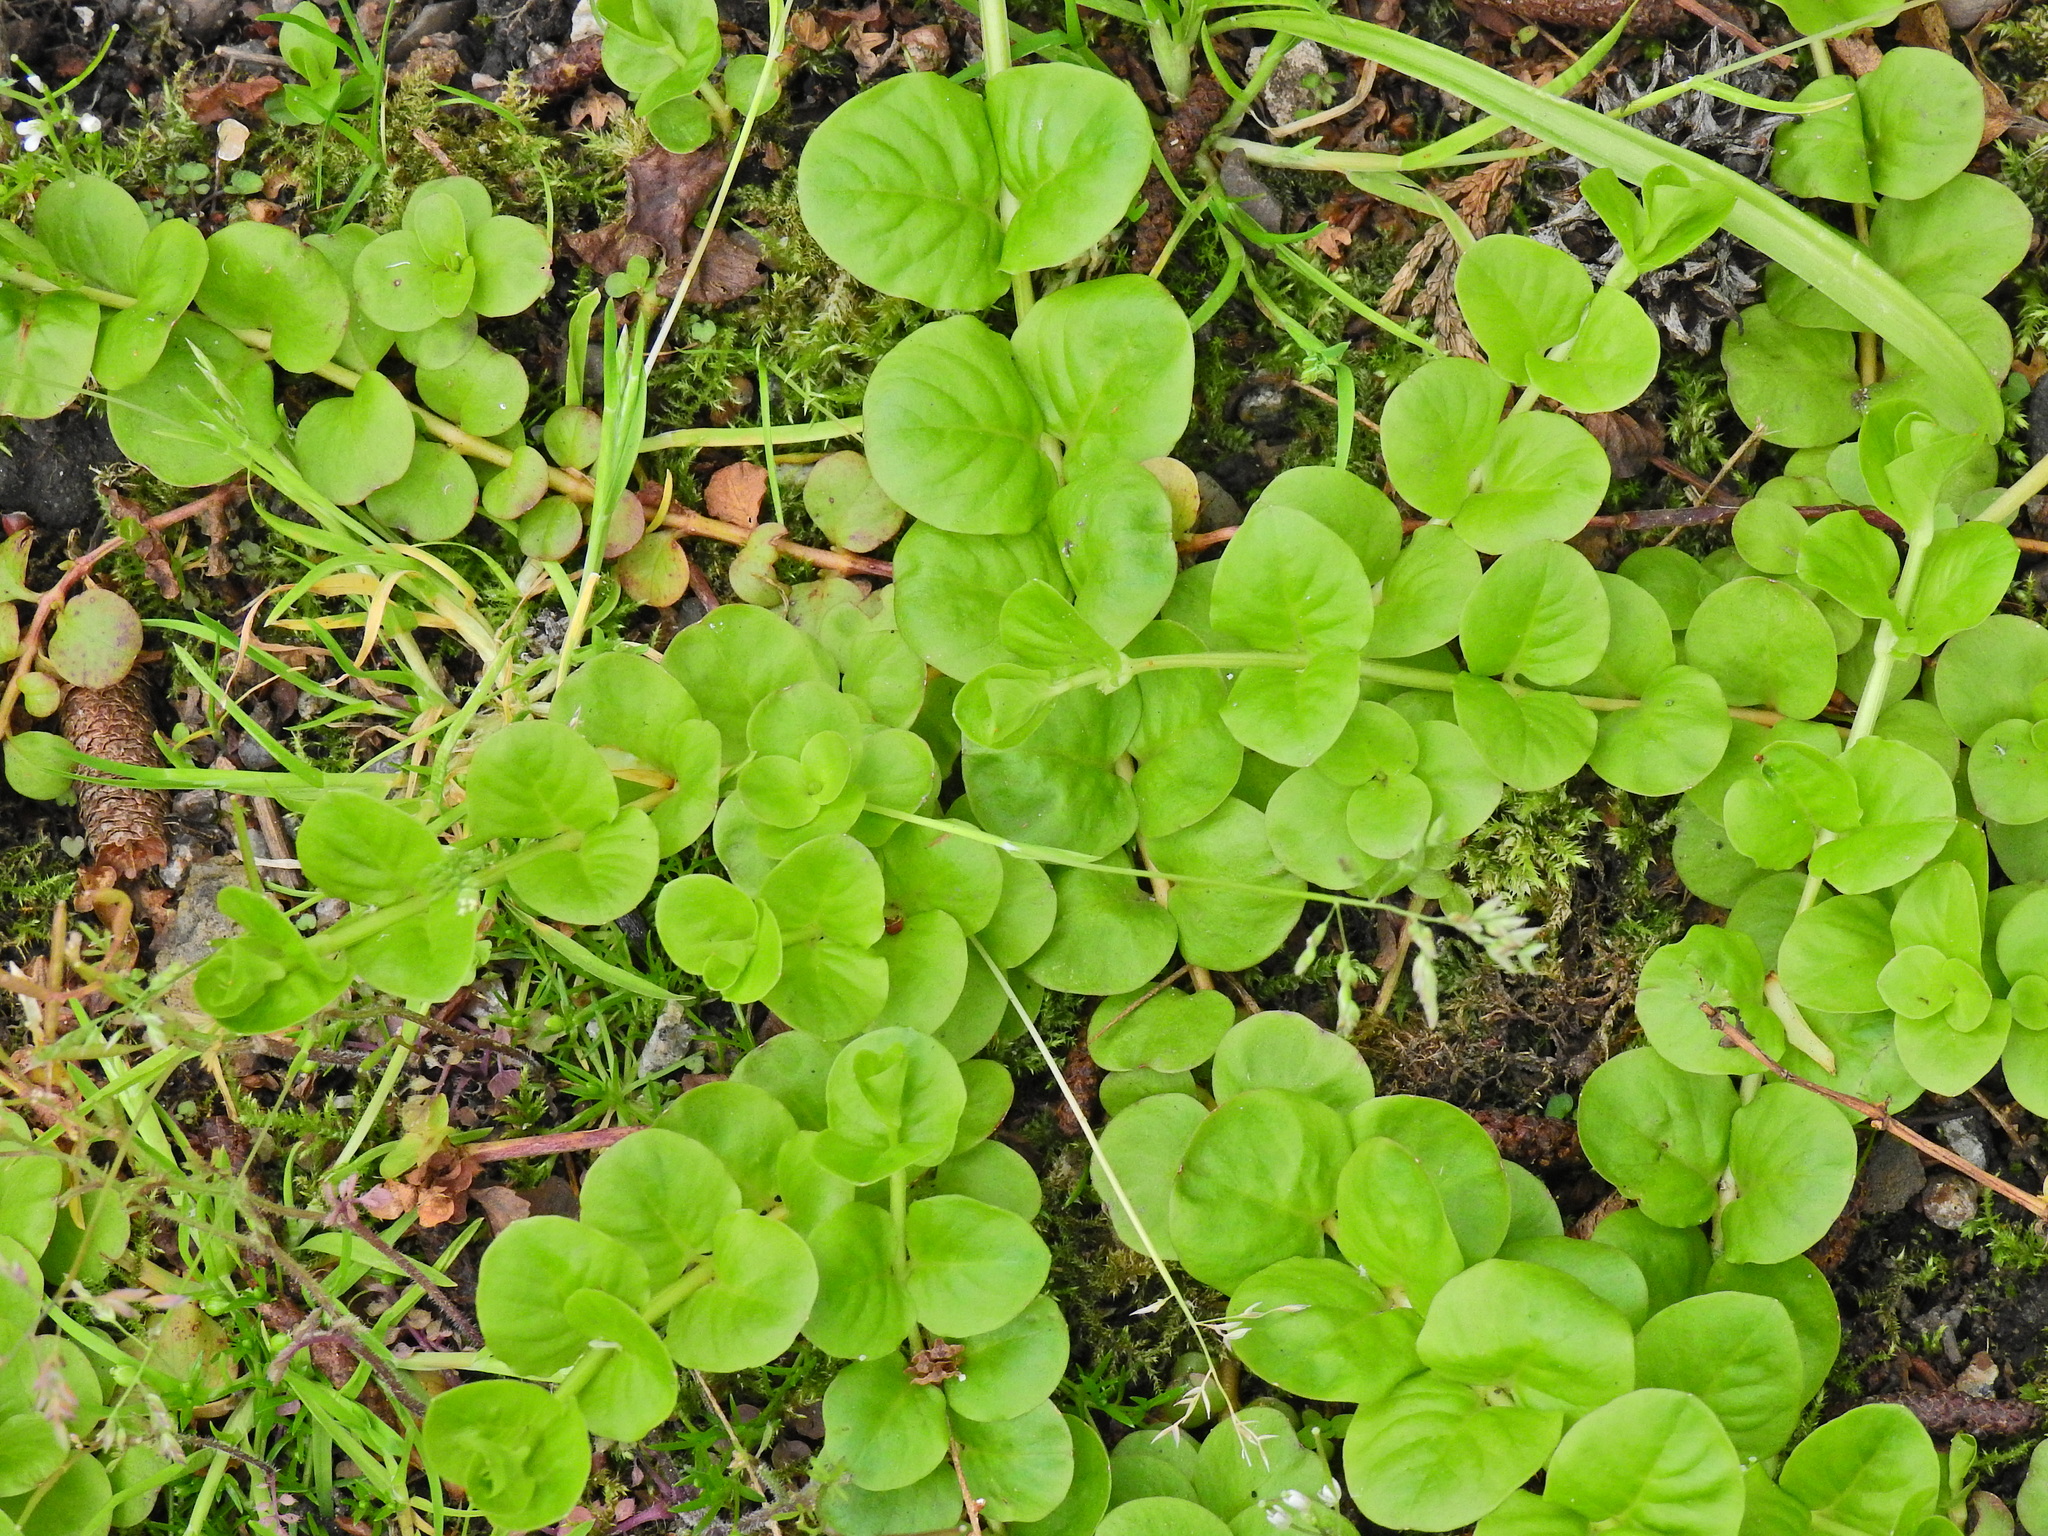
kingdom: Plantae
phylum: Tracheophyta
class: Magnoliopsida
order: Ericales
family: Primulaceae
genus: Lysimachia
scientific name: Lysimachia nummularia
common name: Moneywort
